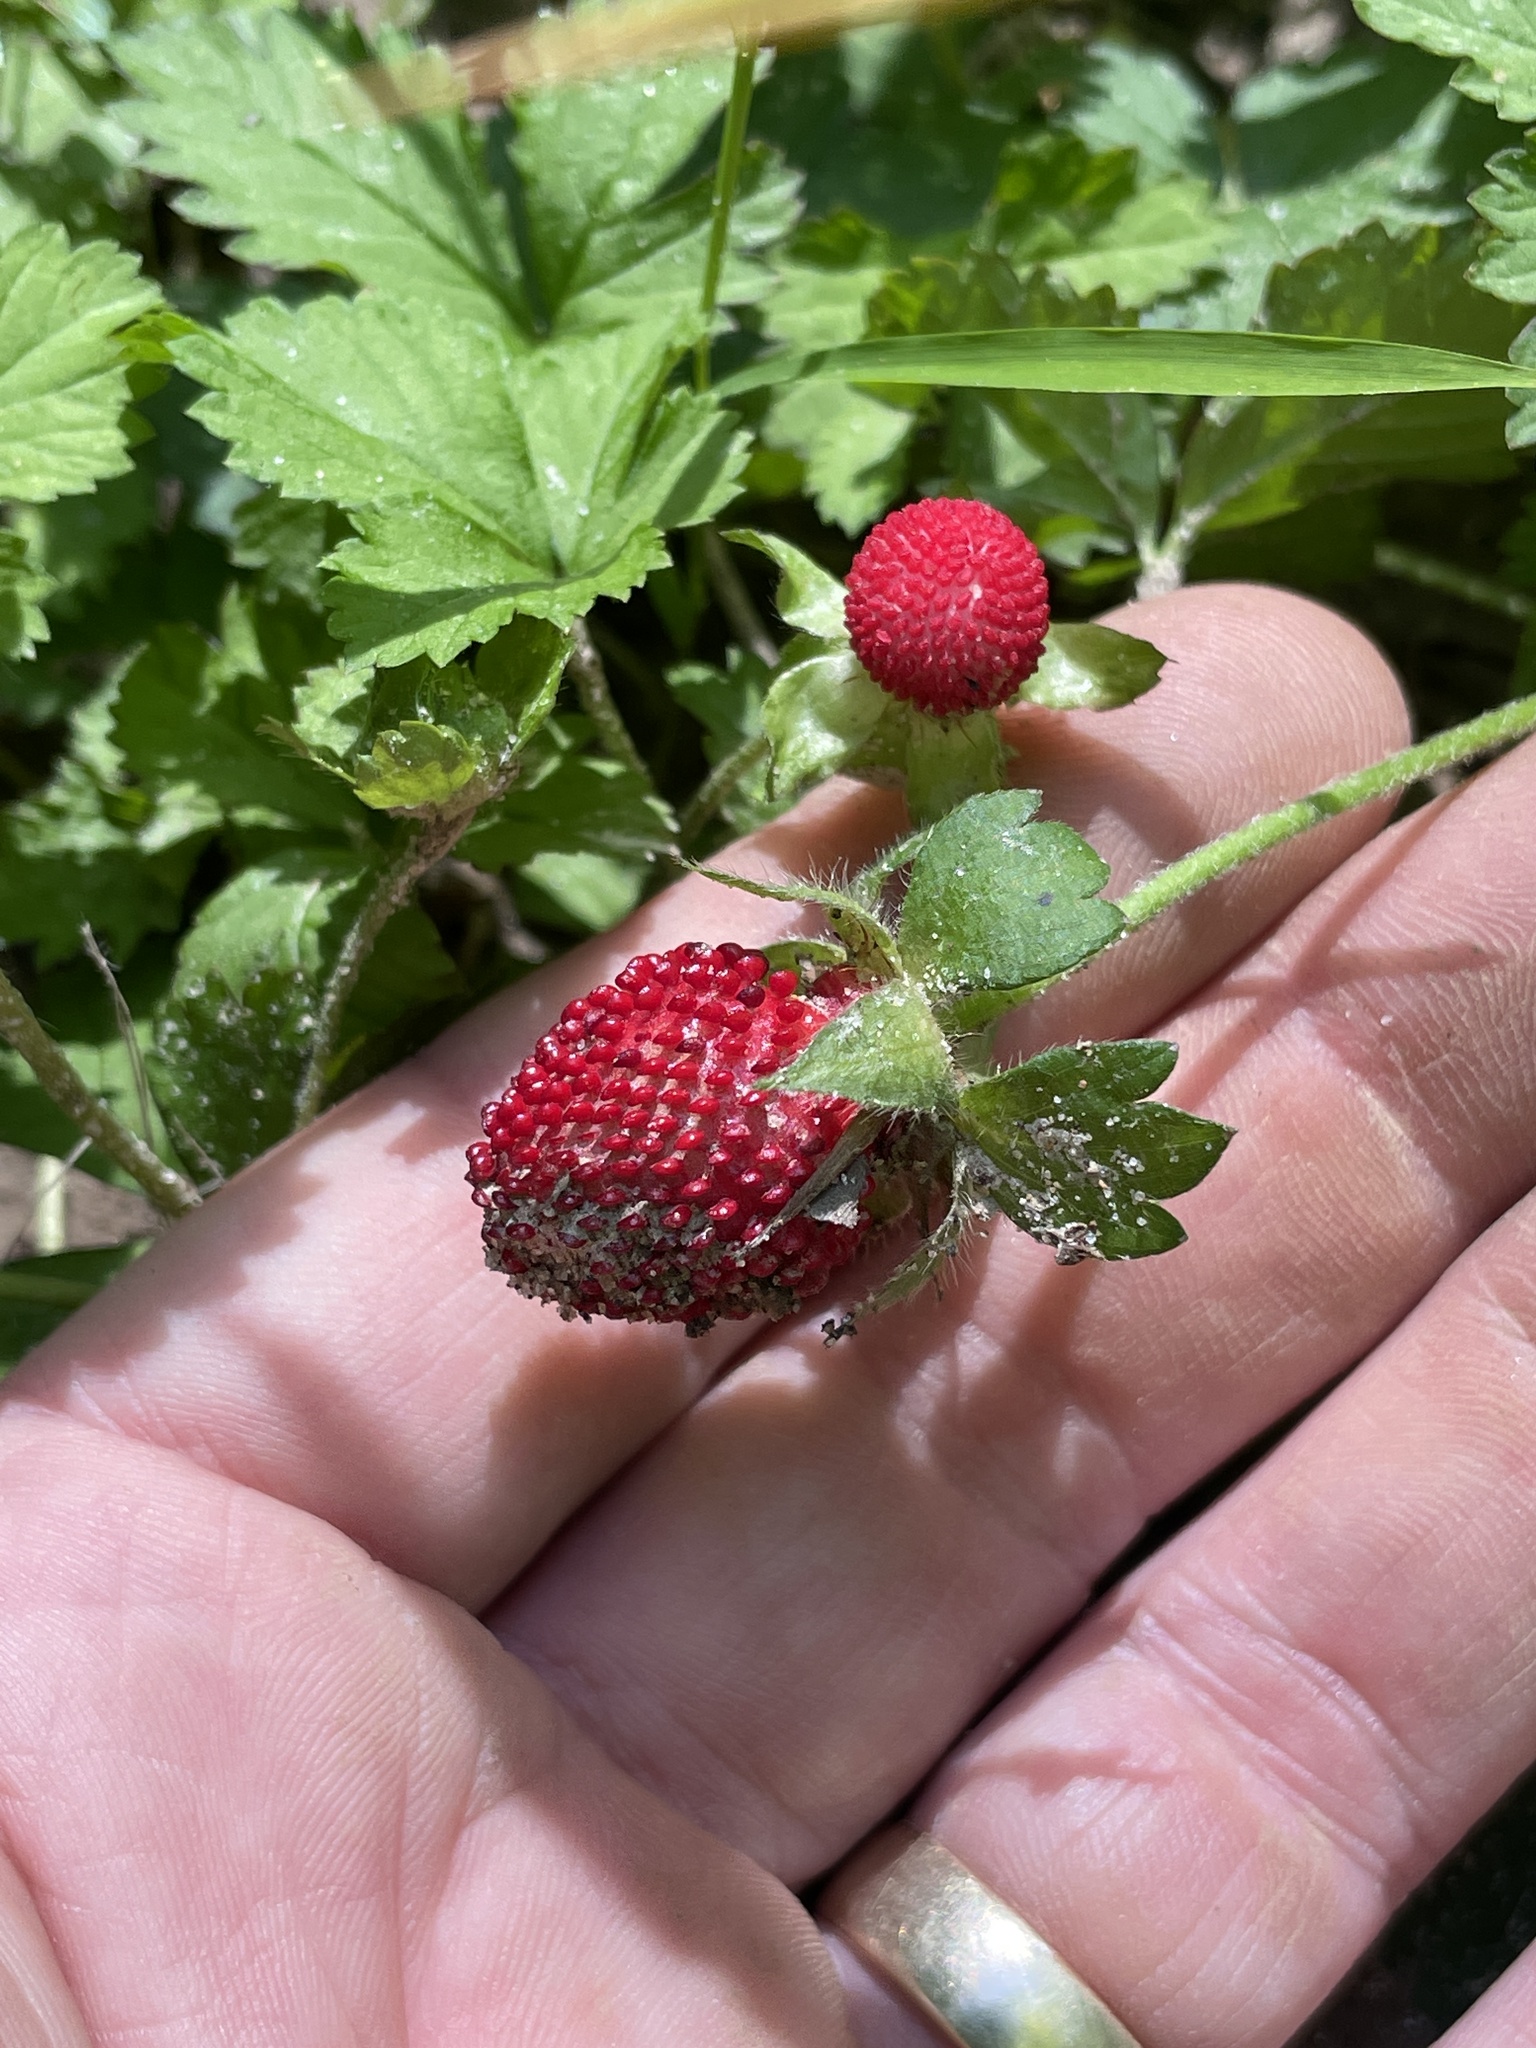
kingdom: Plantae
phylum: Tracheophyta
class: Magnoliopsida
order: Rosales
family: Rosaceae
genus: Potentilla
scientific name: Potentilla indica
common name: Yellow-flowered strawberry
